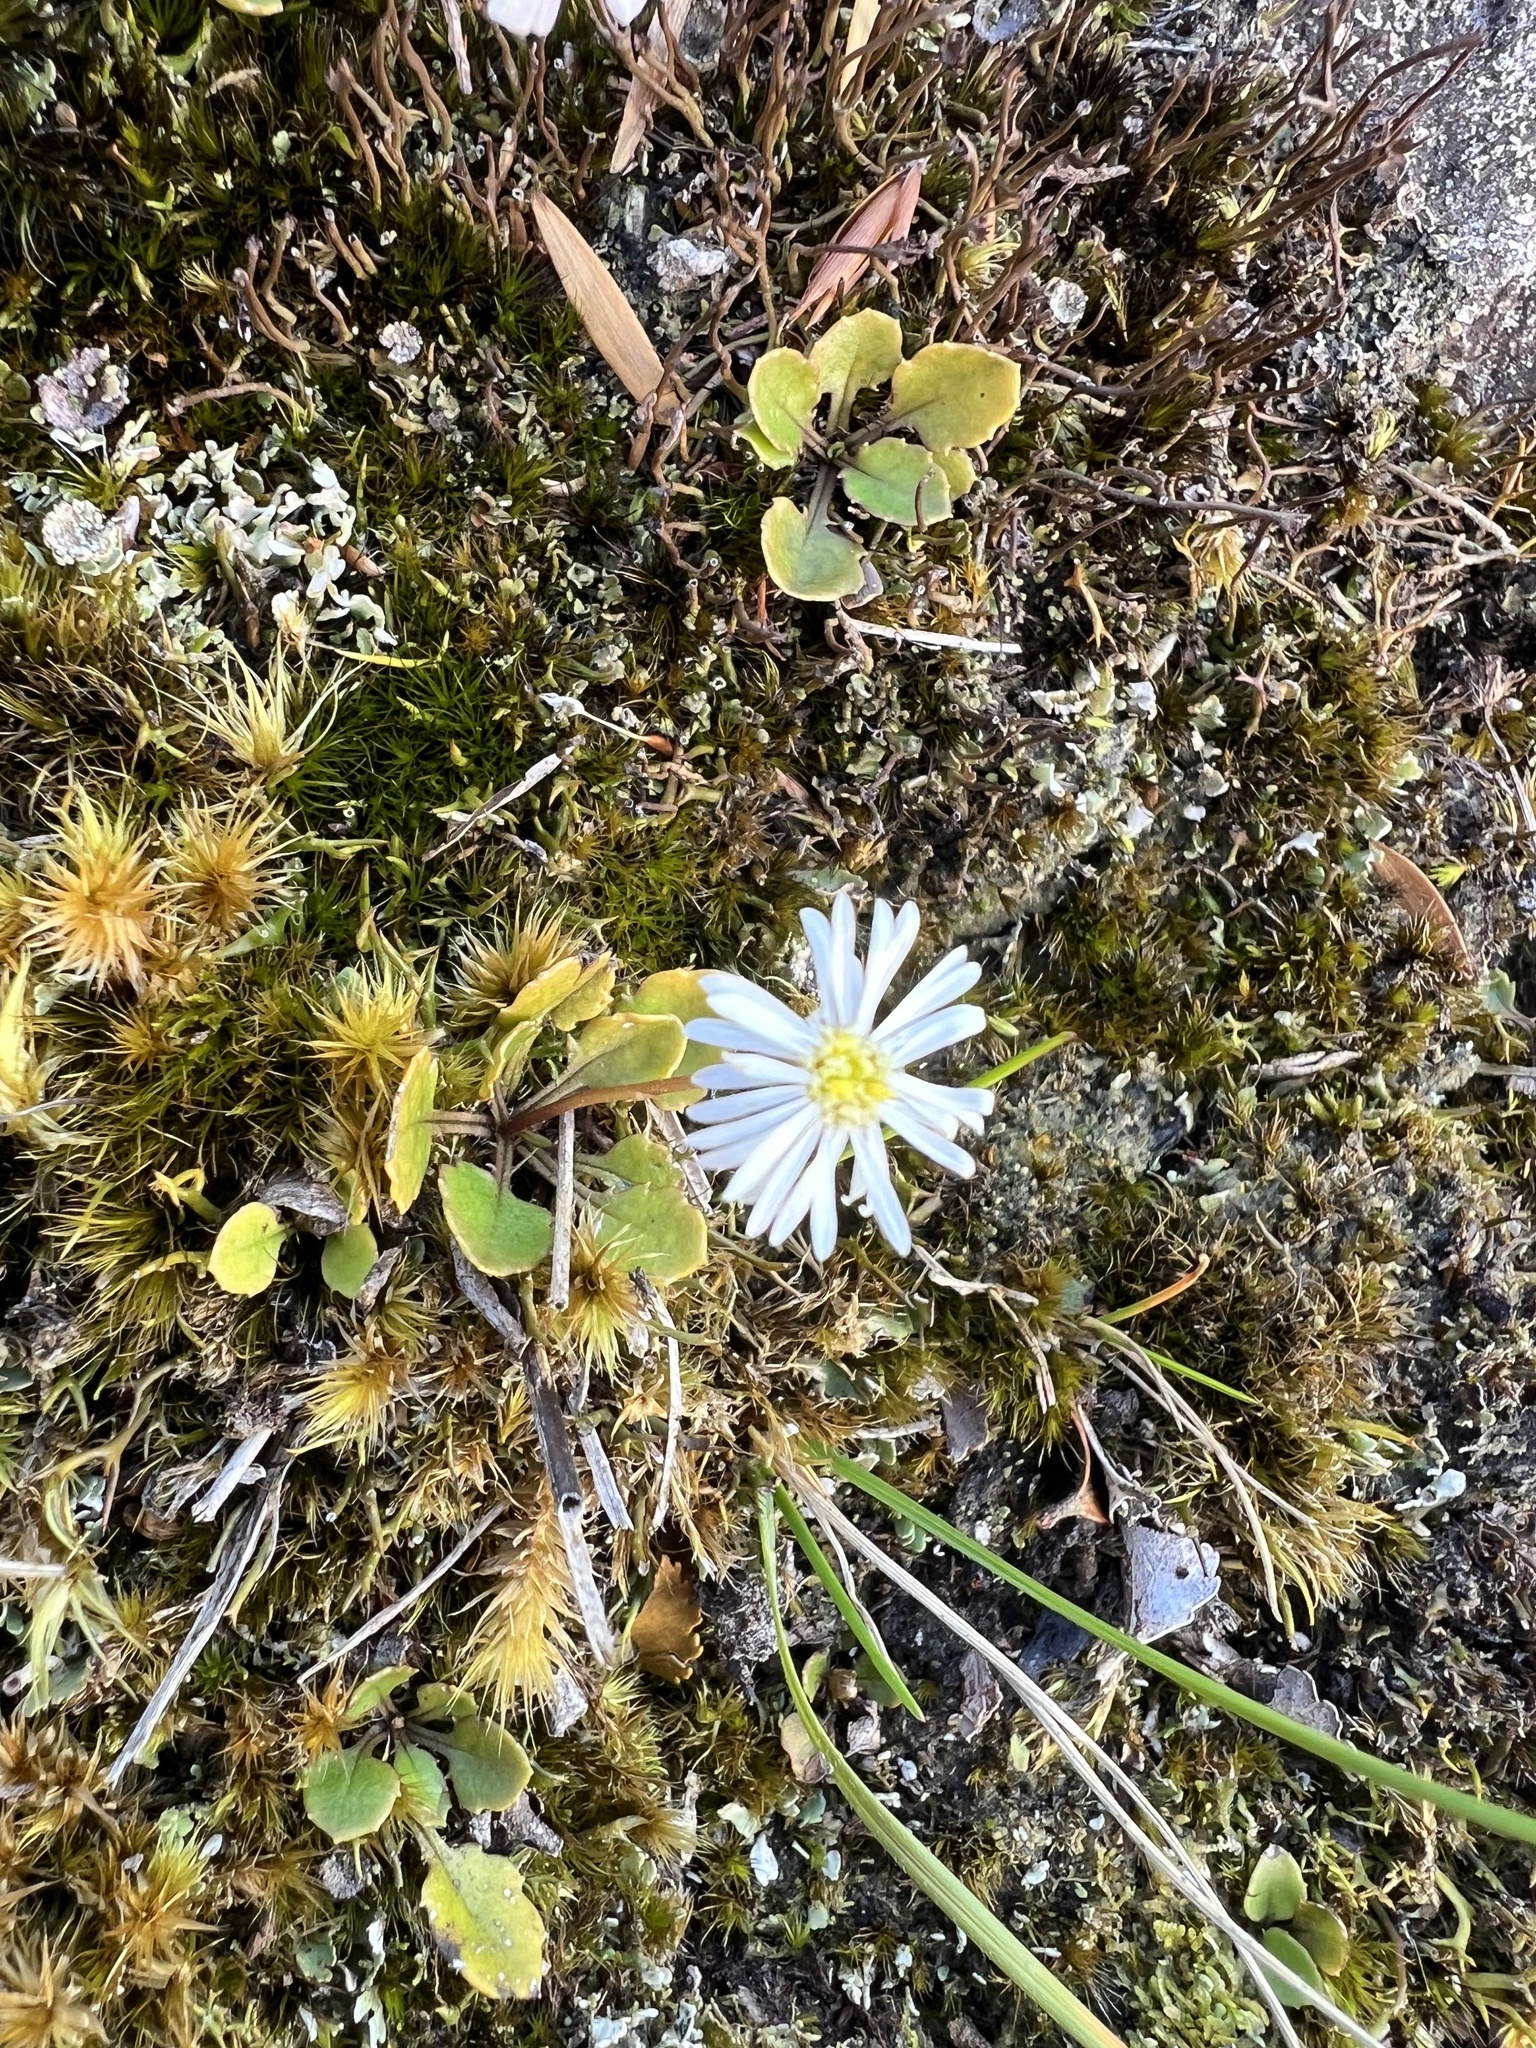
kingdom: Plantae
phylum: Tracheophyta
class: Magnoliopsida
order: Asterales
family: Asteraceae
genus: Lagenophora
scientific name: Lagenophora pumila
